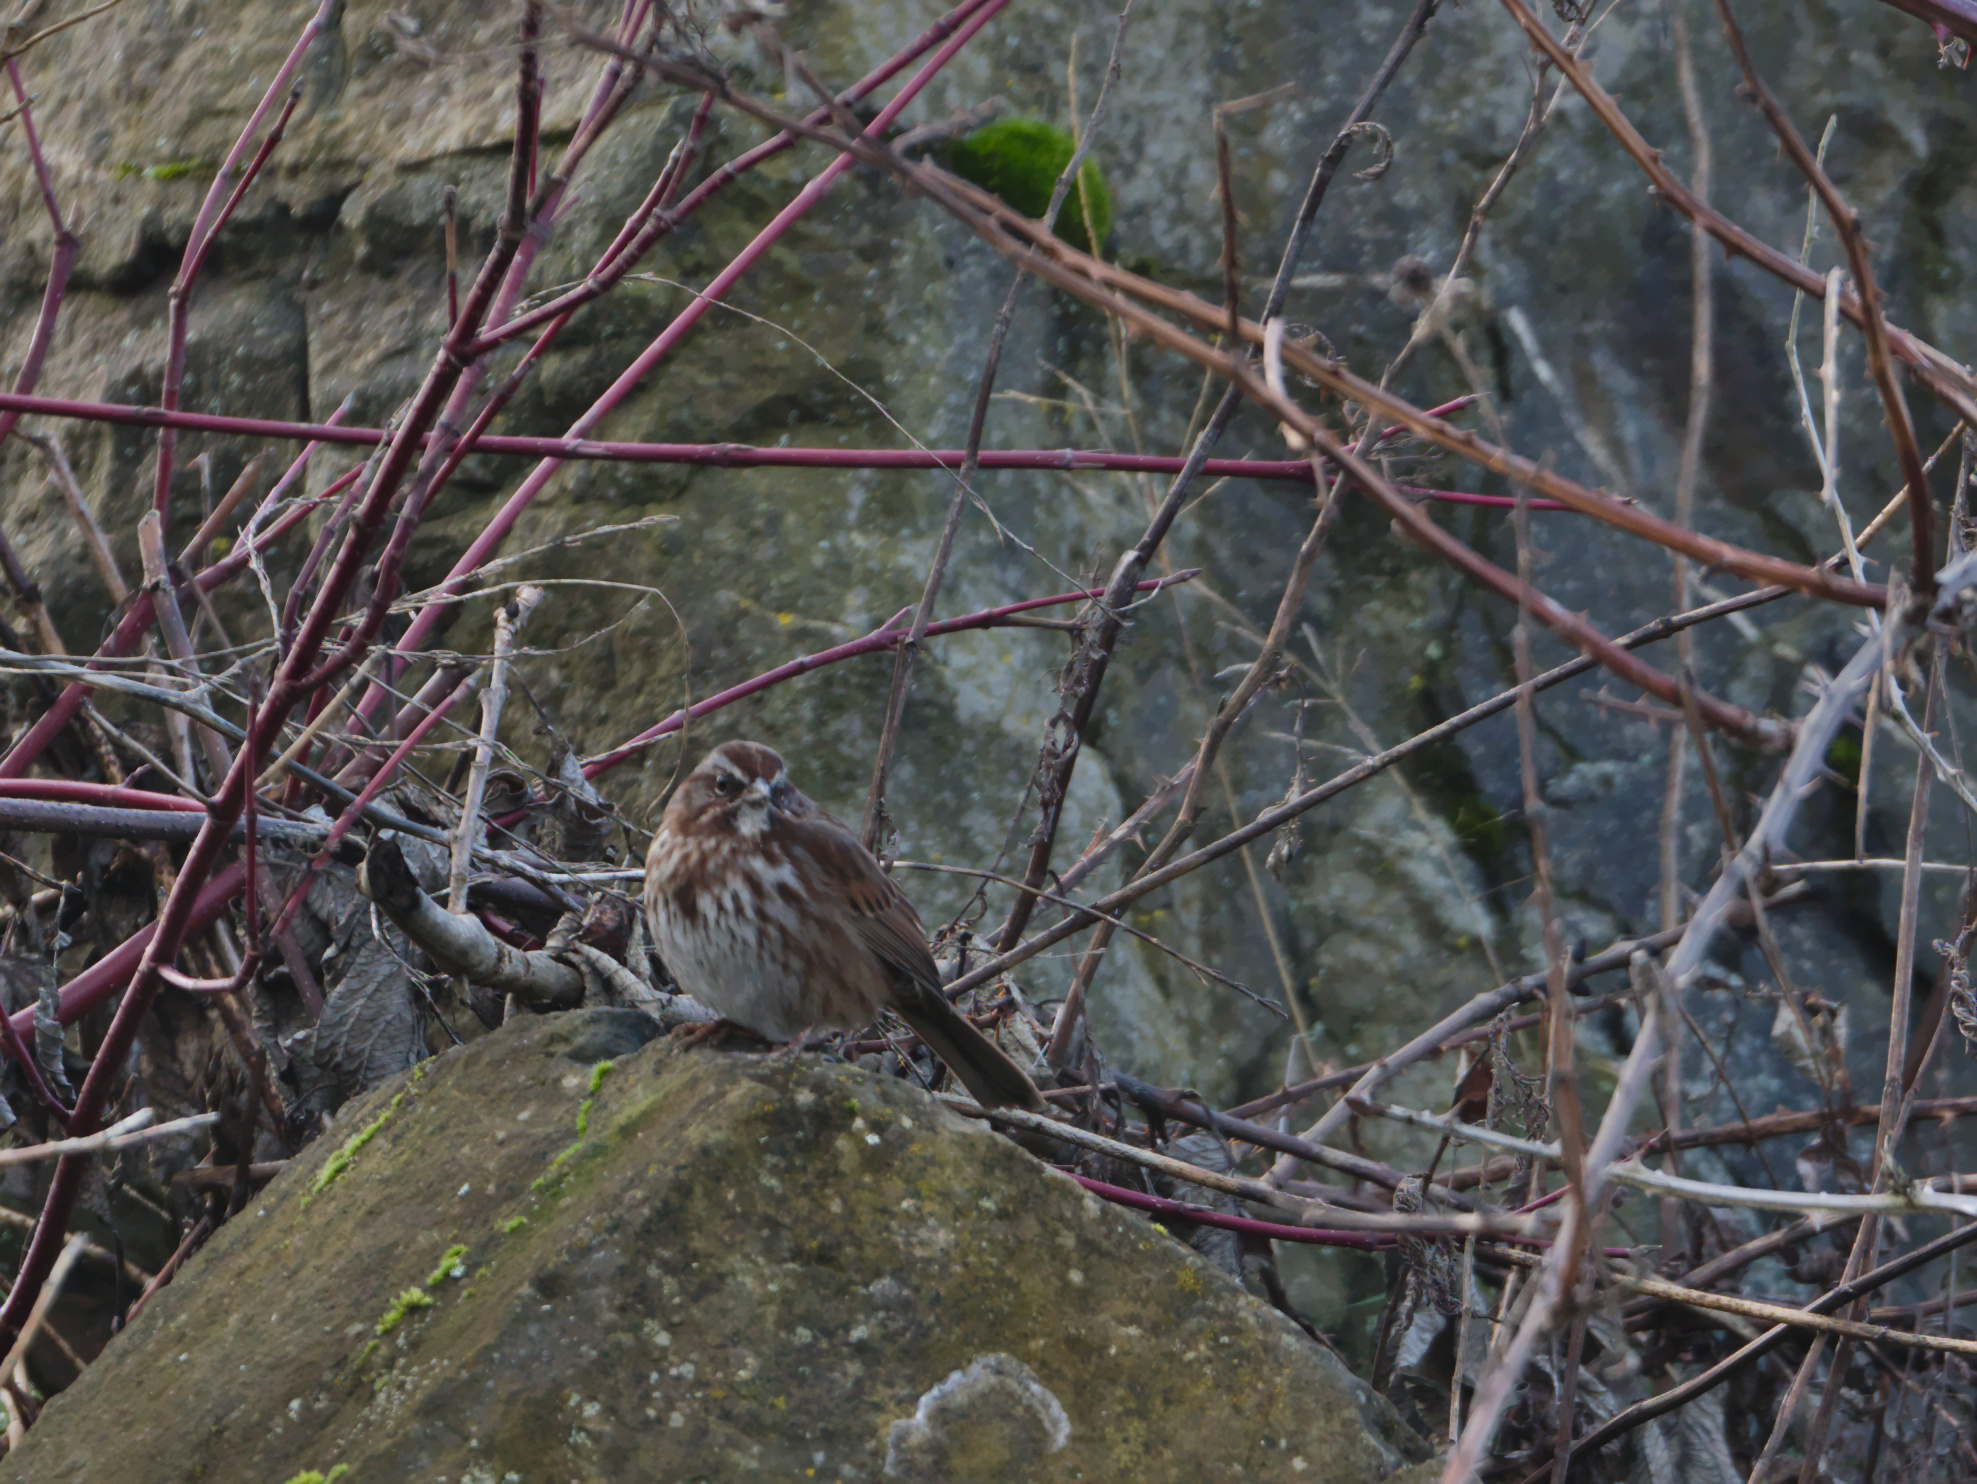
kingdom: Animalia
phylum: Chordata
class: Aves
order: Passeriformes
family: Passerellidae
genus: Melospiza
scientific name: Melospiza melodia
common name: Song sparrow
